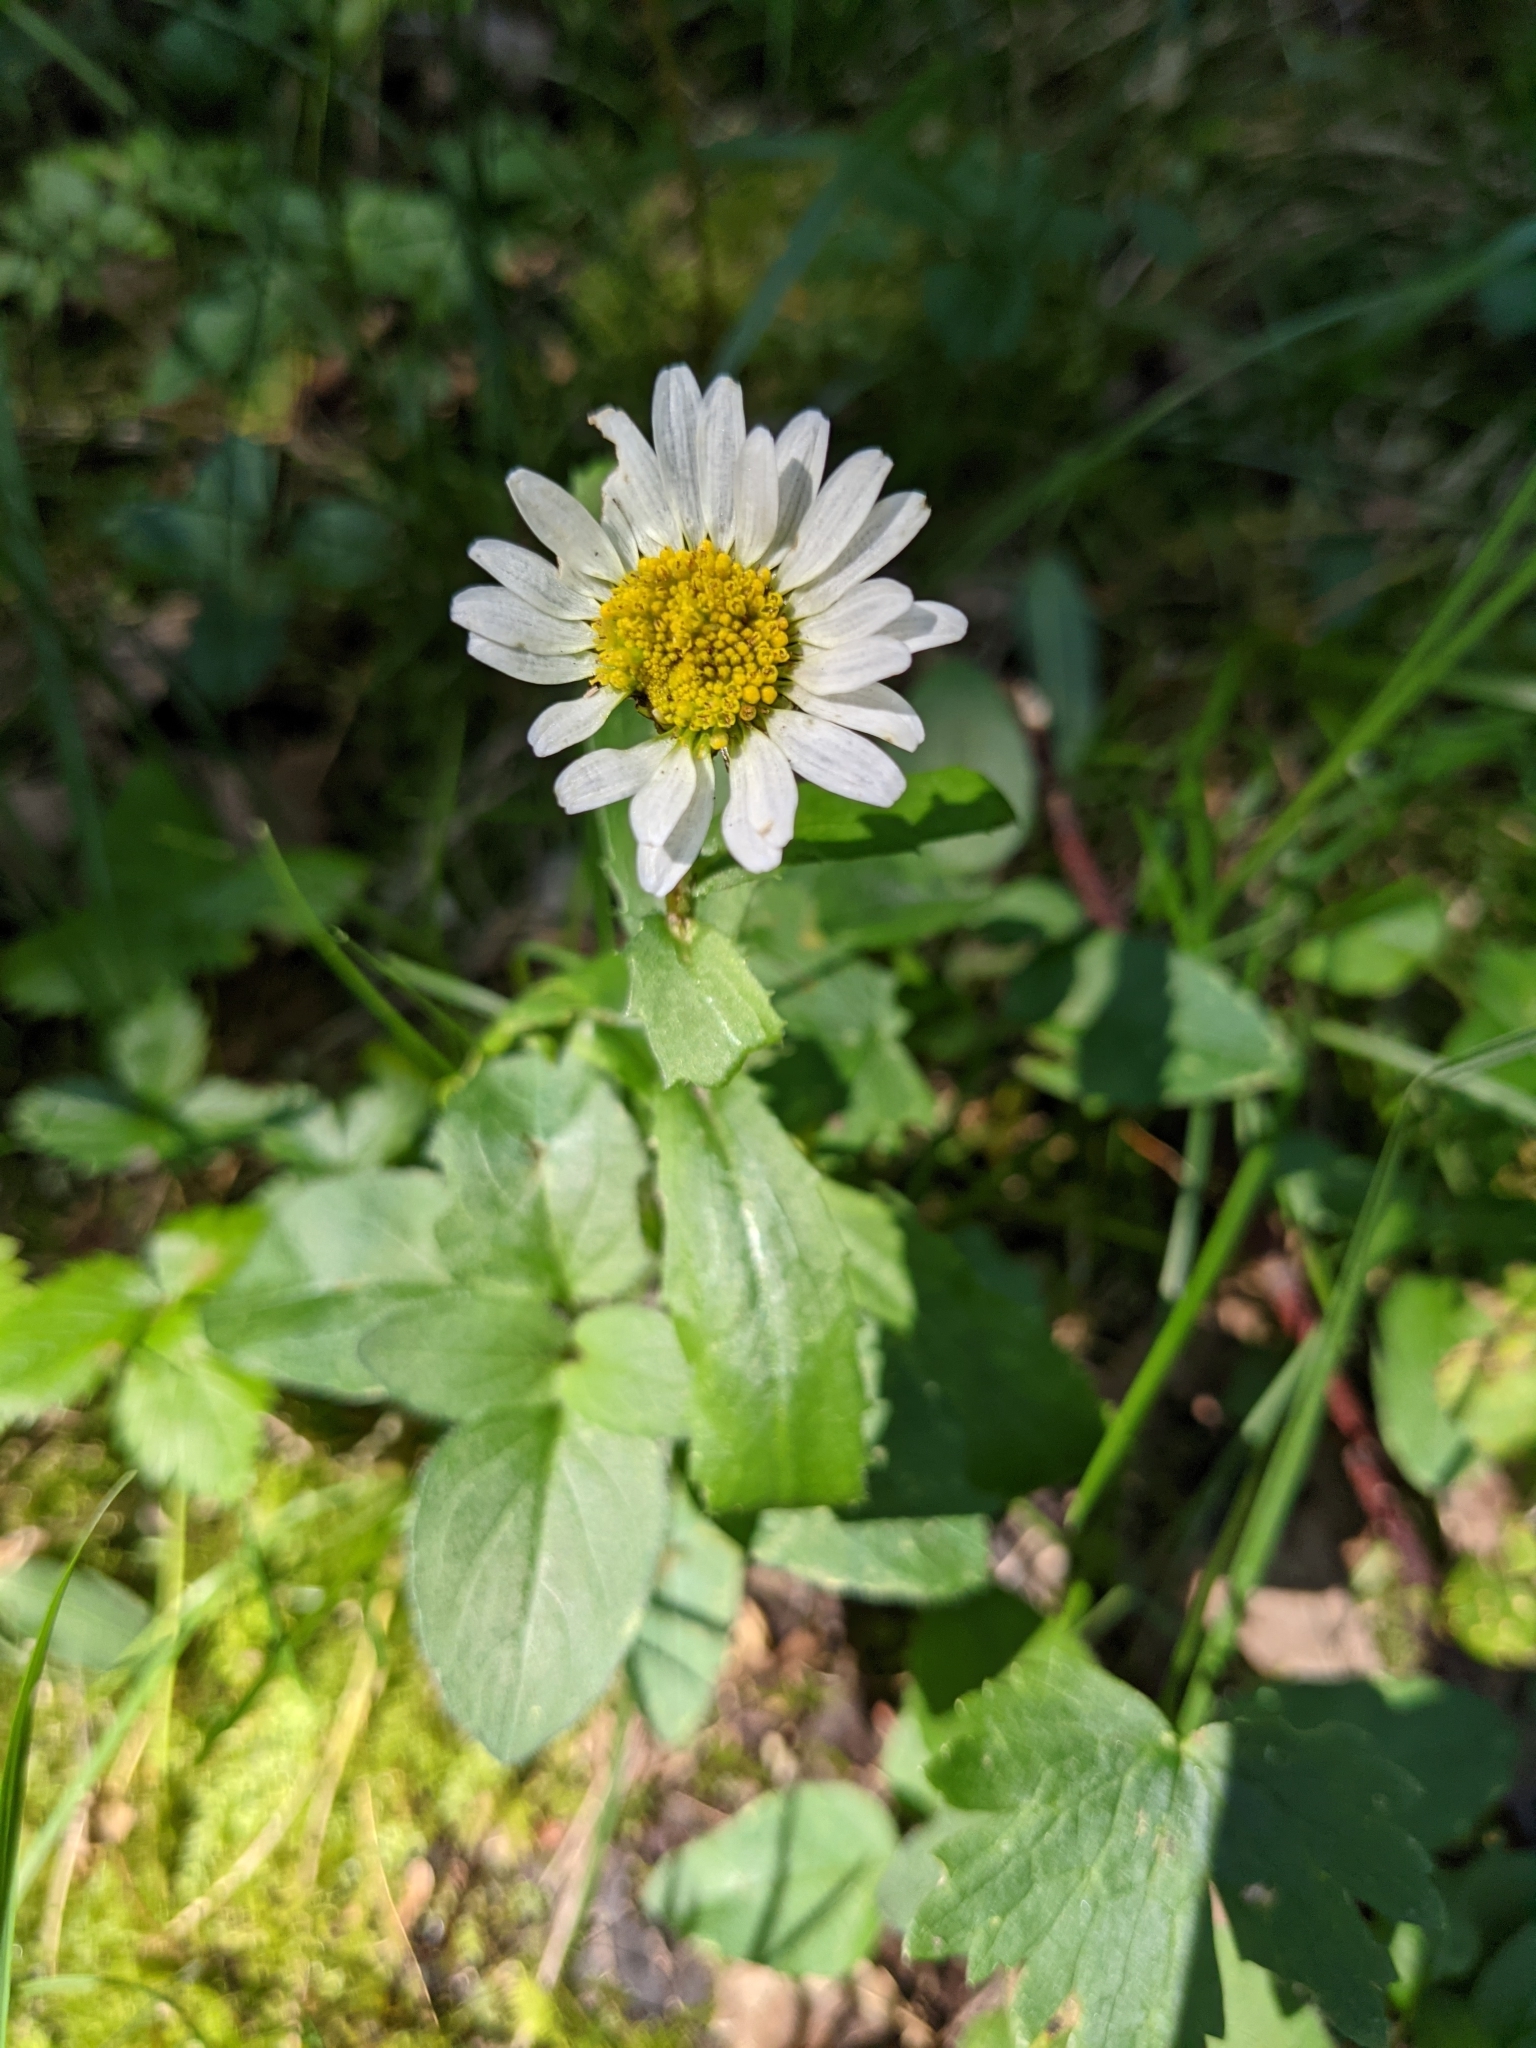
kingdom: Plantae
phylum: Tracheophyta
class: Magnoliopsida
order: Asterales
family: Asteraceae
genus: Leucanthemum
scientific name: Leucanthemum vulgare
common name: Oxeye daisy
